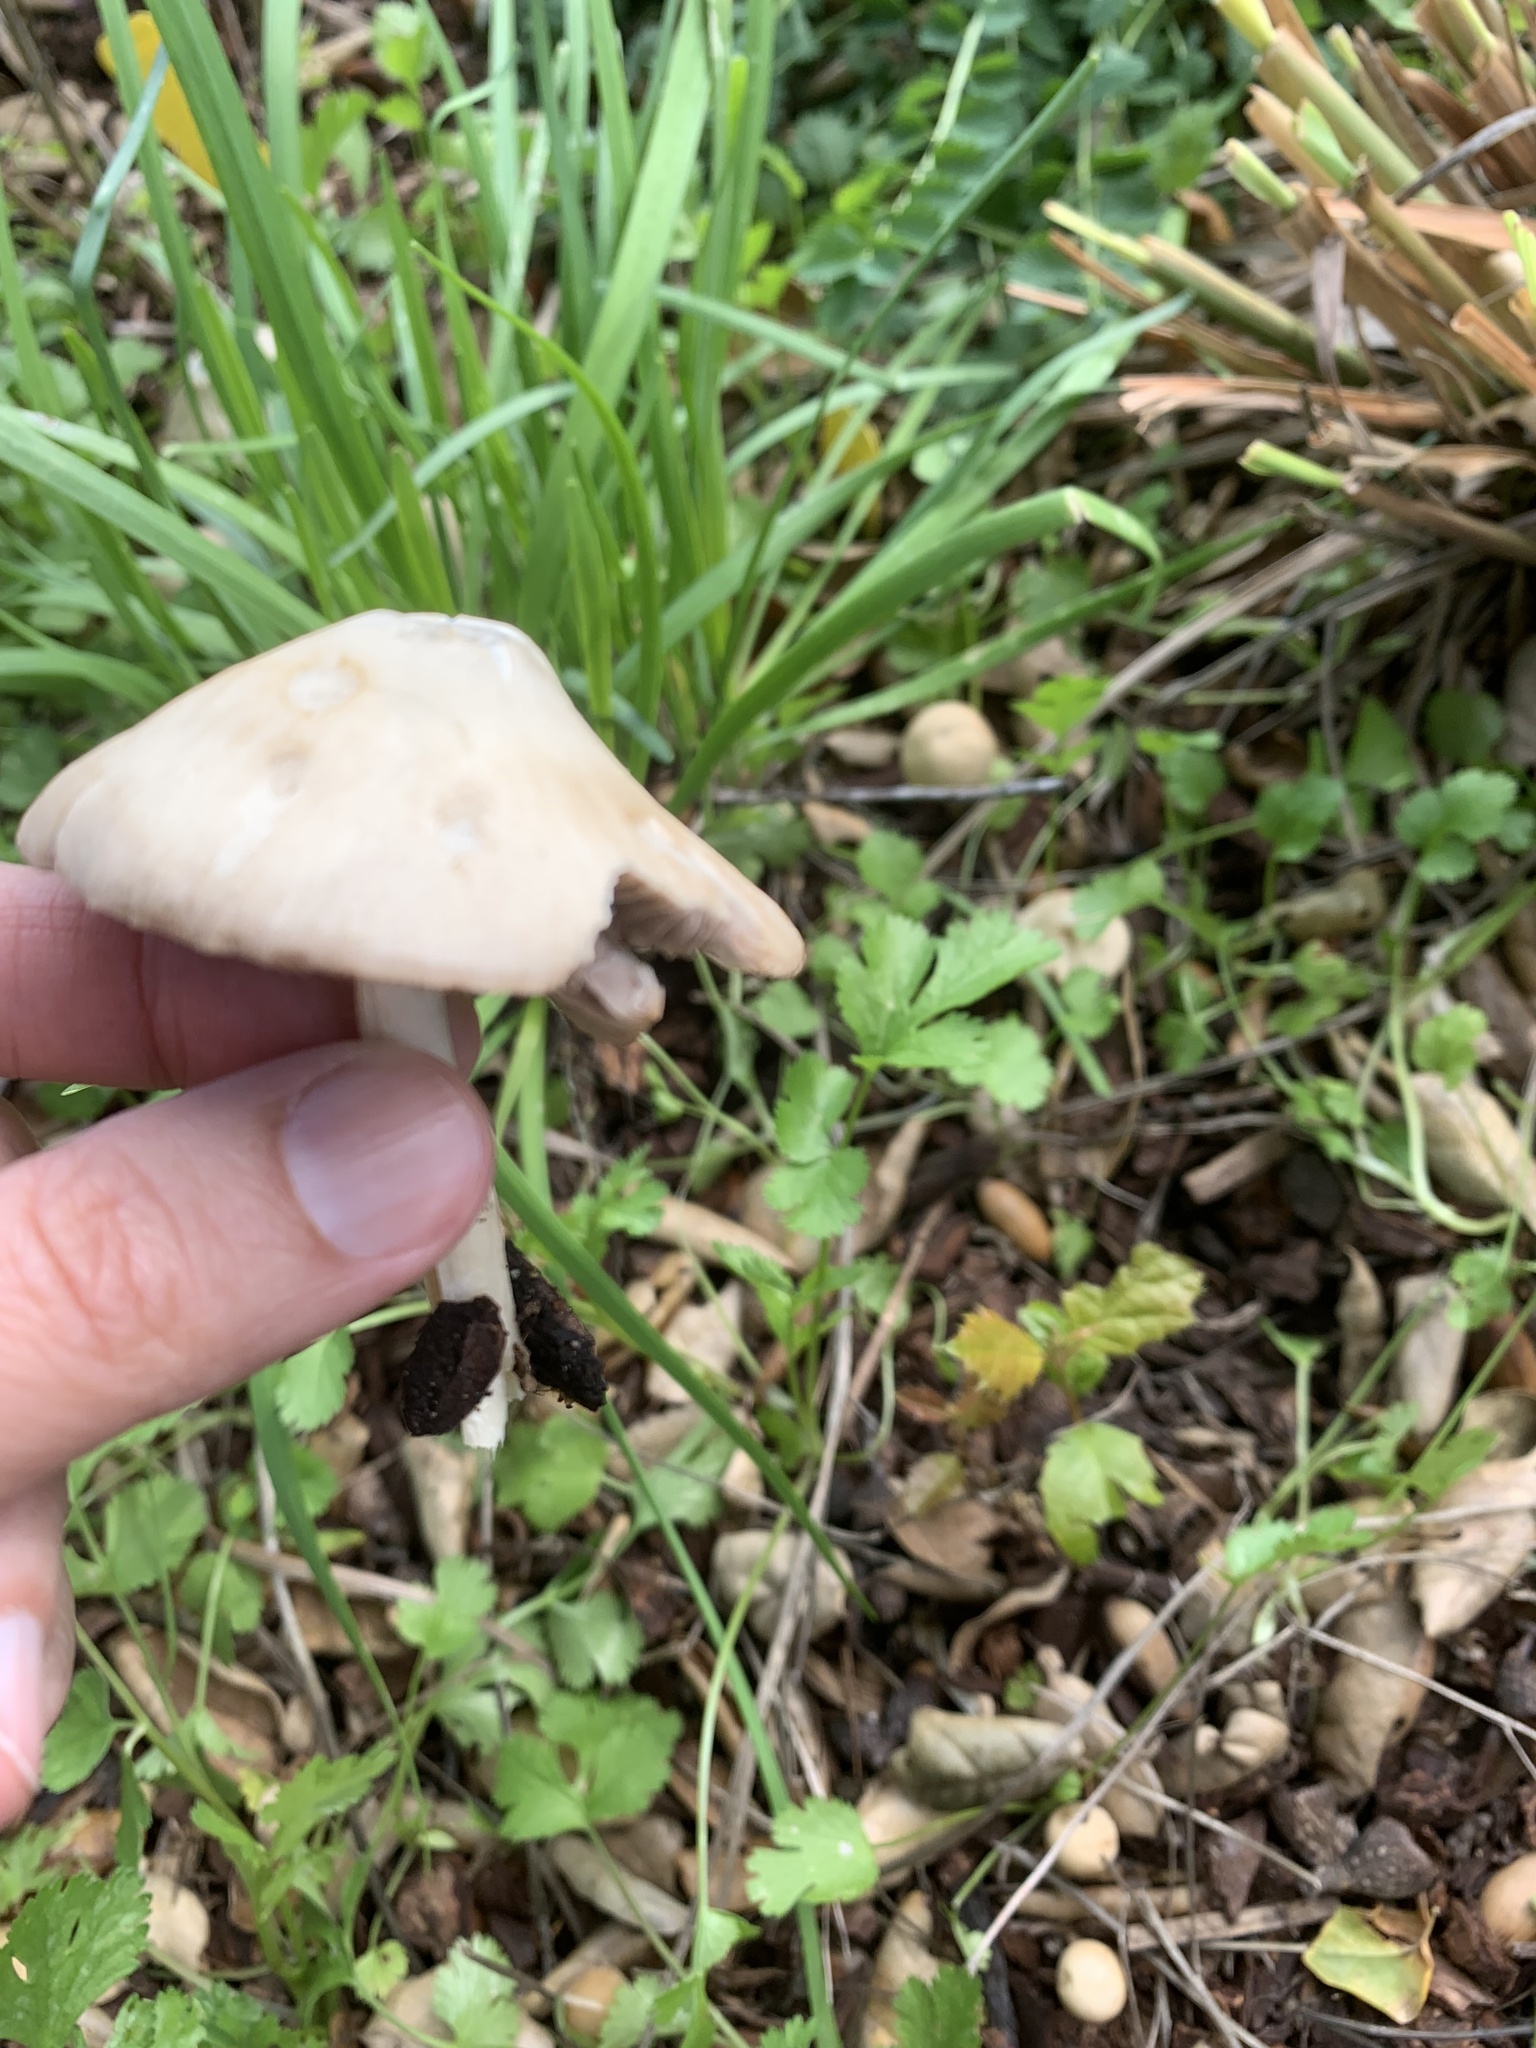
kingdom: Fungi
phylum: Basidiomycota
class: Agaricomycetes
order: Agaricales
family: Psathyrellaceae
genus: Candolleomyces
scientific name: Candolleomyces candolleanus
